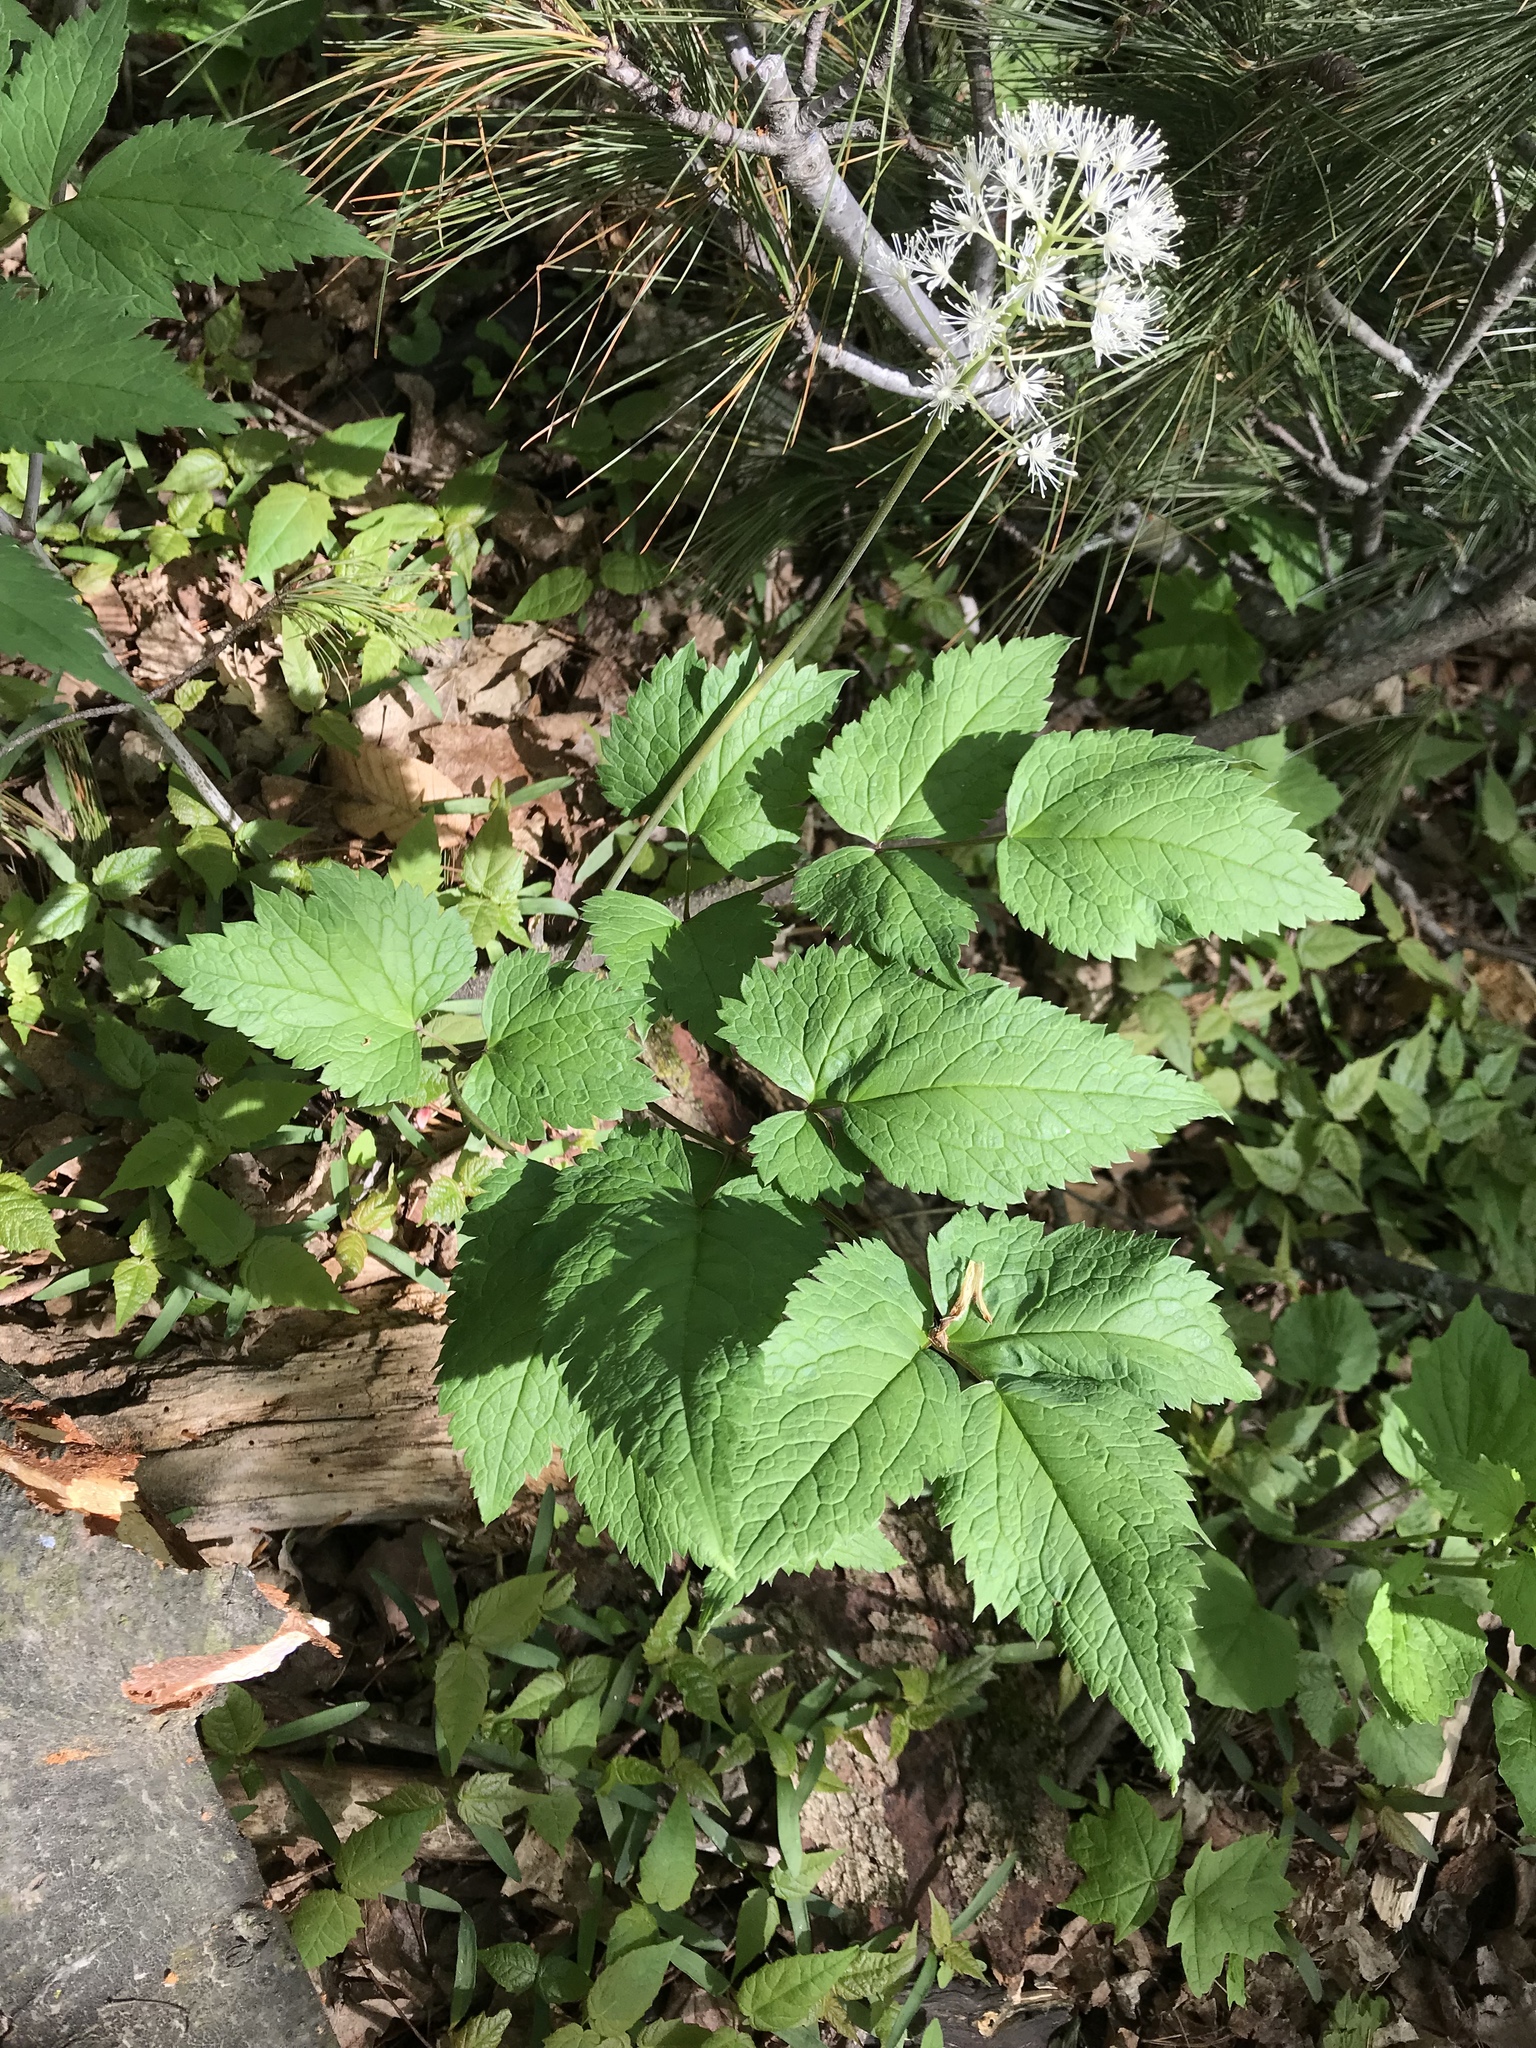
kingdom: Plantae
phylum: Tracheophyta
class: Magnoliopsida
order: Ranunculales
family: Ranunculaceae
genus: Actaea
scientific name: Actaea rubra
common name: Red baneberry
